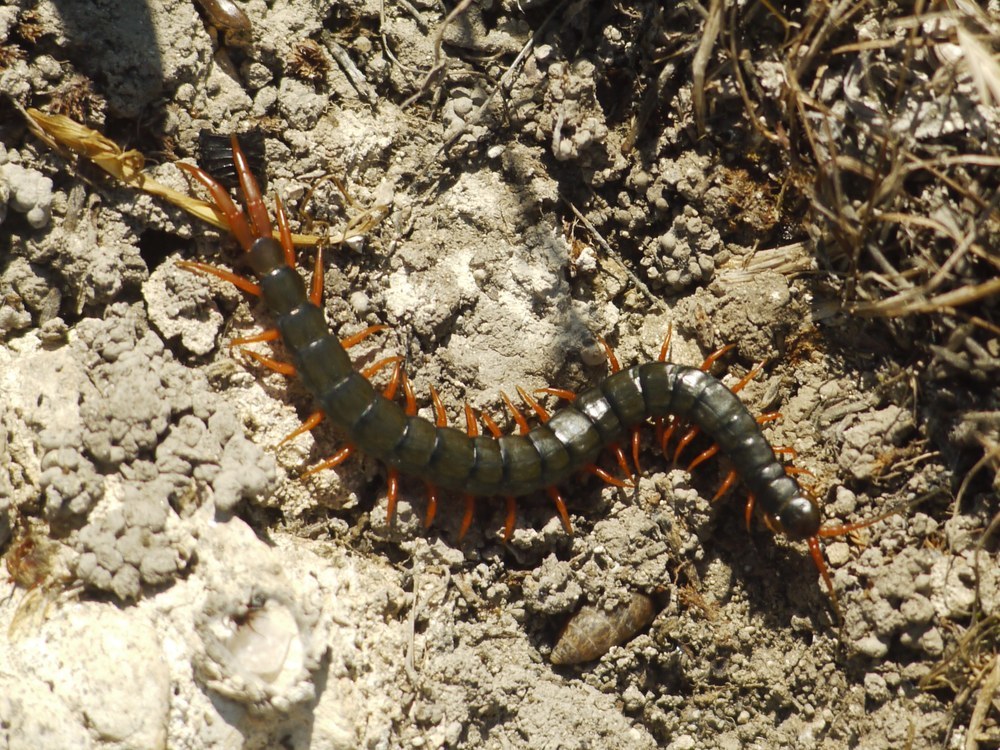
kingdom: Animalia
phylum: Arthropoda
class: Chilopoda
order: Scolopendromorpha
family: Scolopendridae
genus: Scolopendra
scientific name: Scolopendra cingulata
